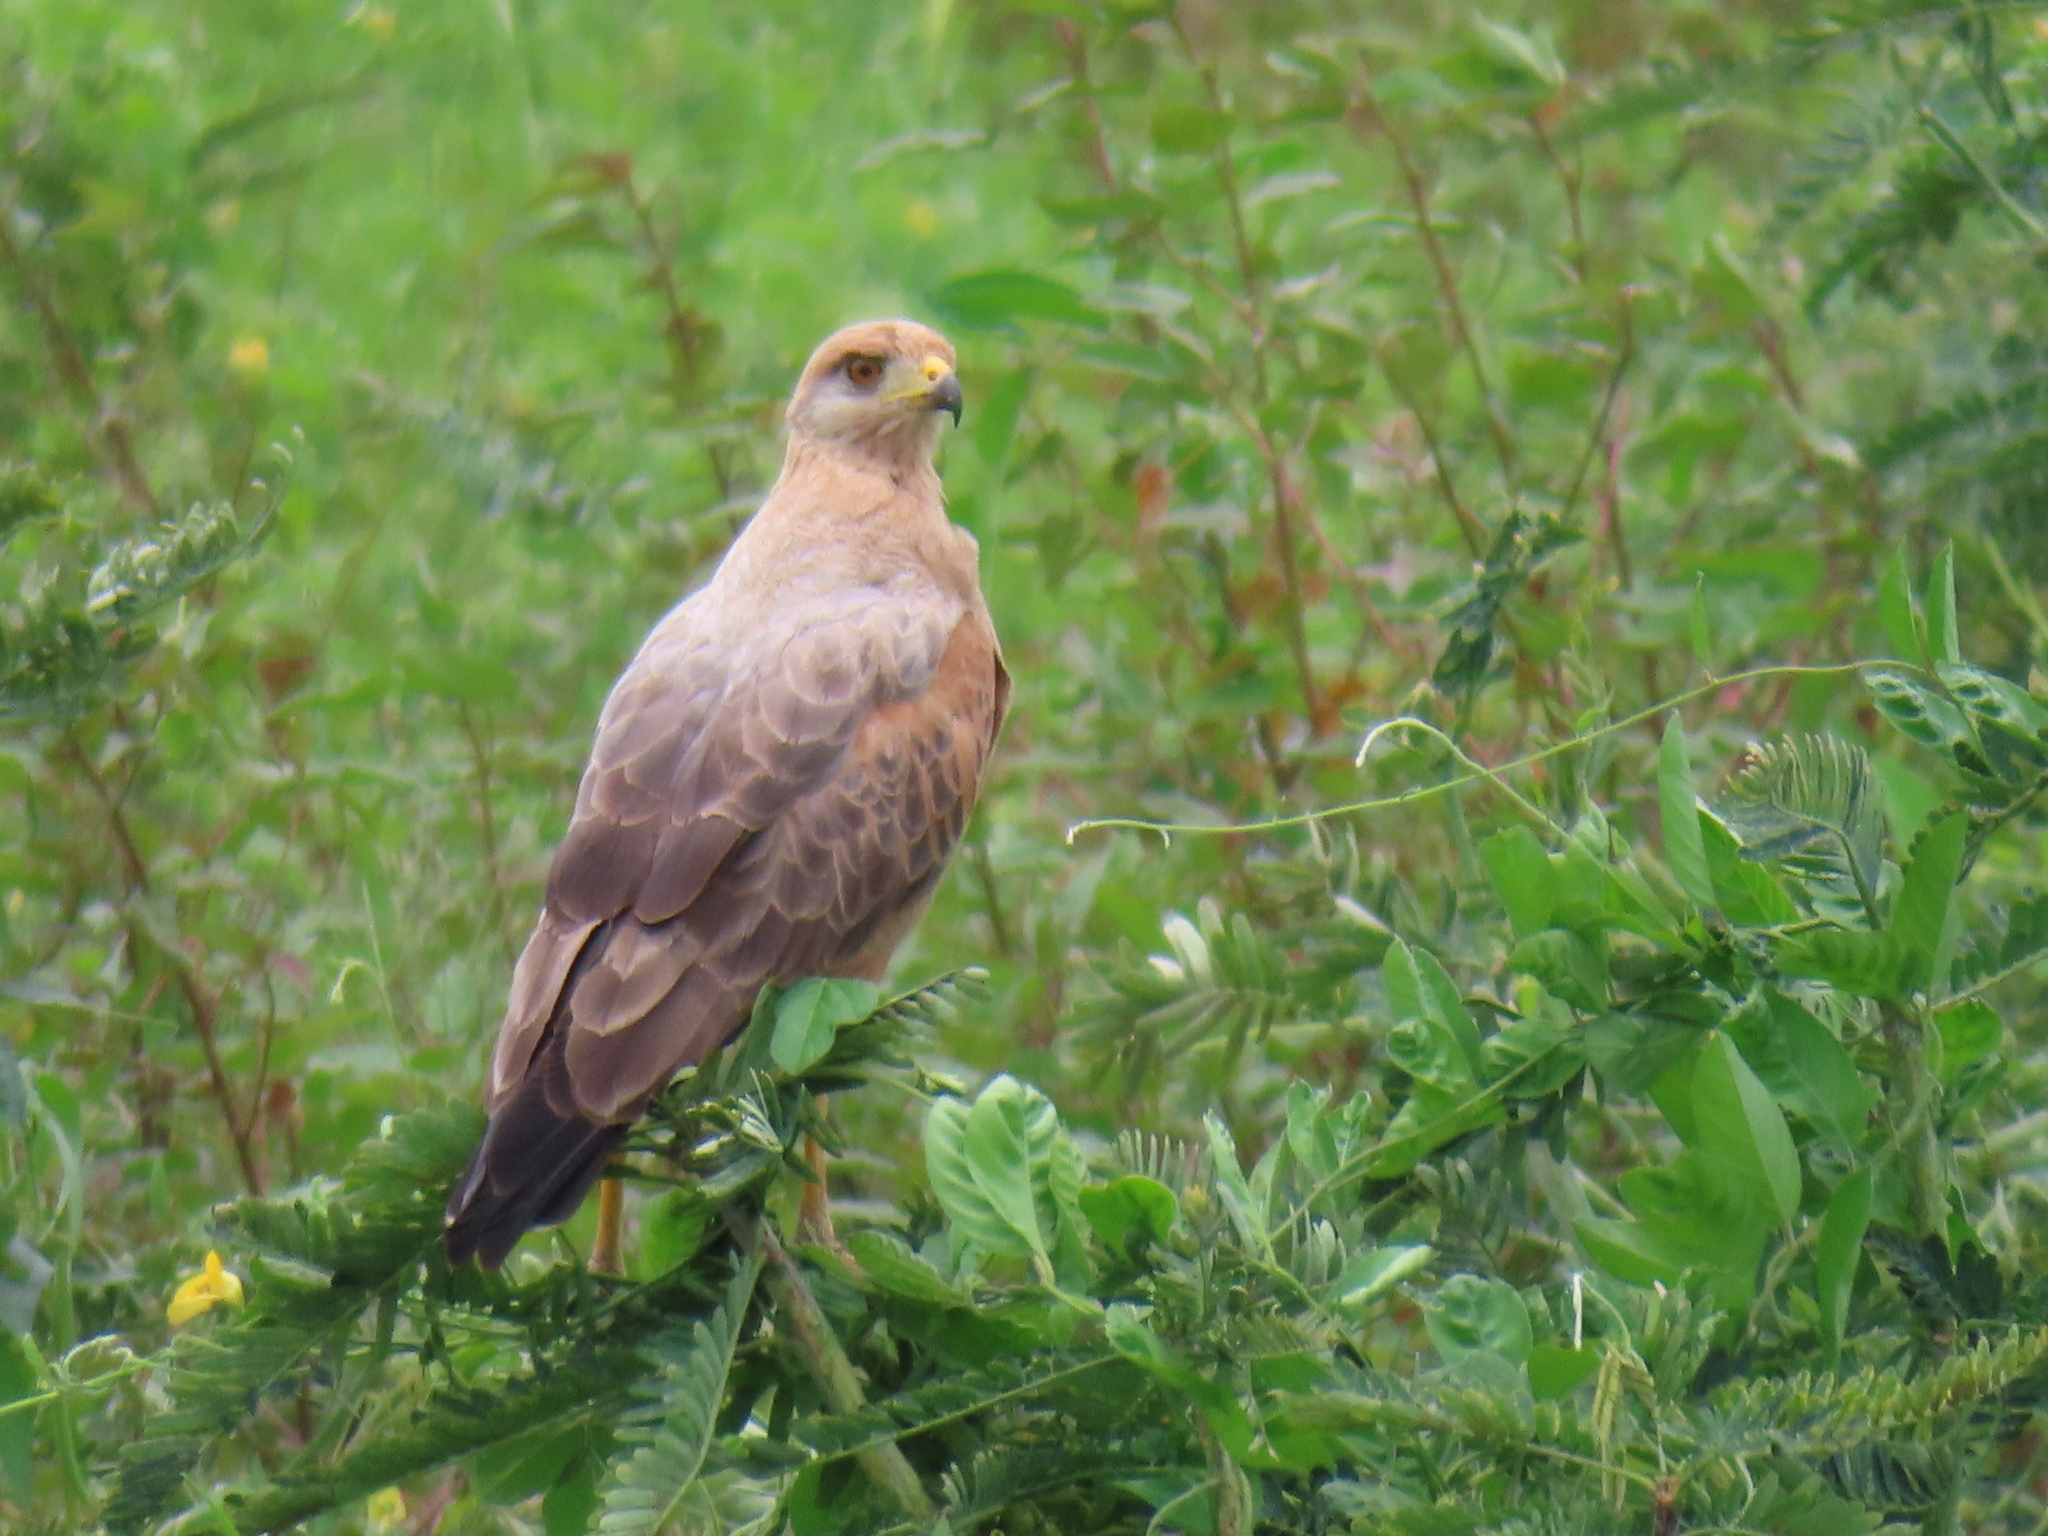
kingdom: Animalia
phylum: Chordata
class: Aves
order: Accipitriformes
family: Accipitridae
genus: Buteogallus
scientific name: Buteogallus meridionalis
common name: Savanna hawk
